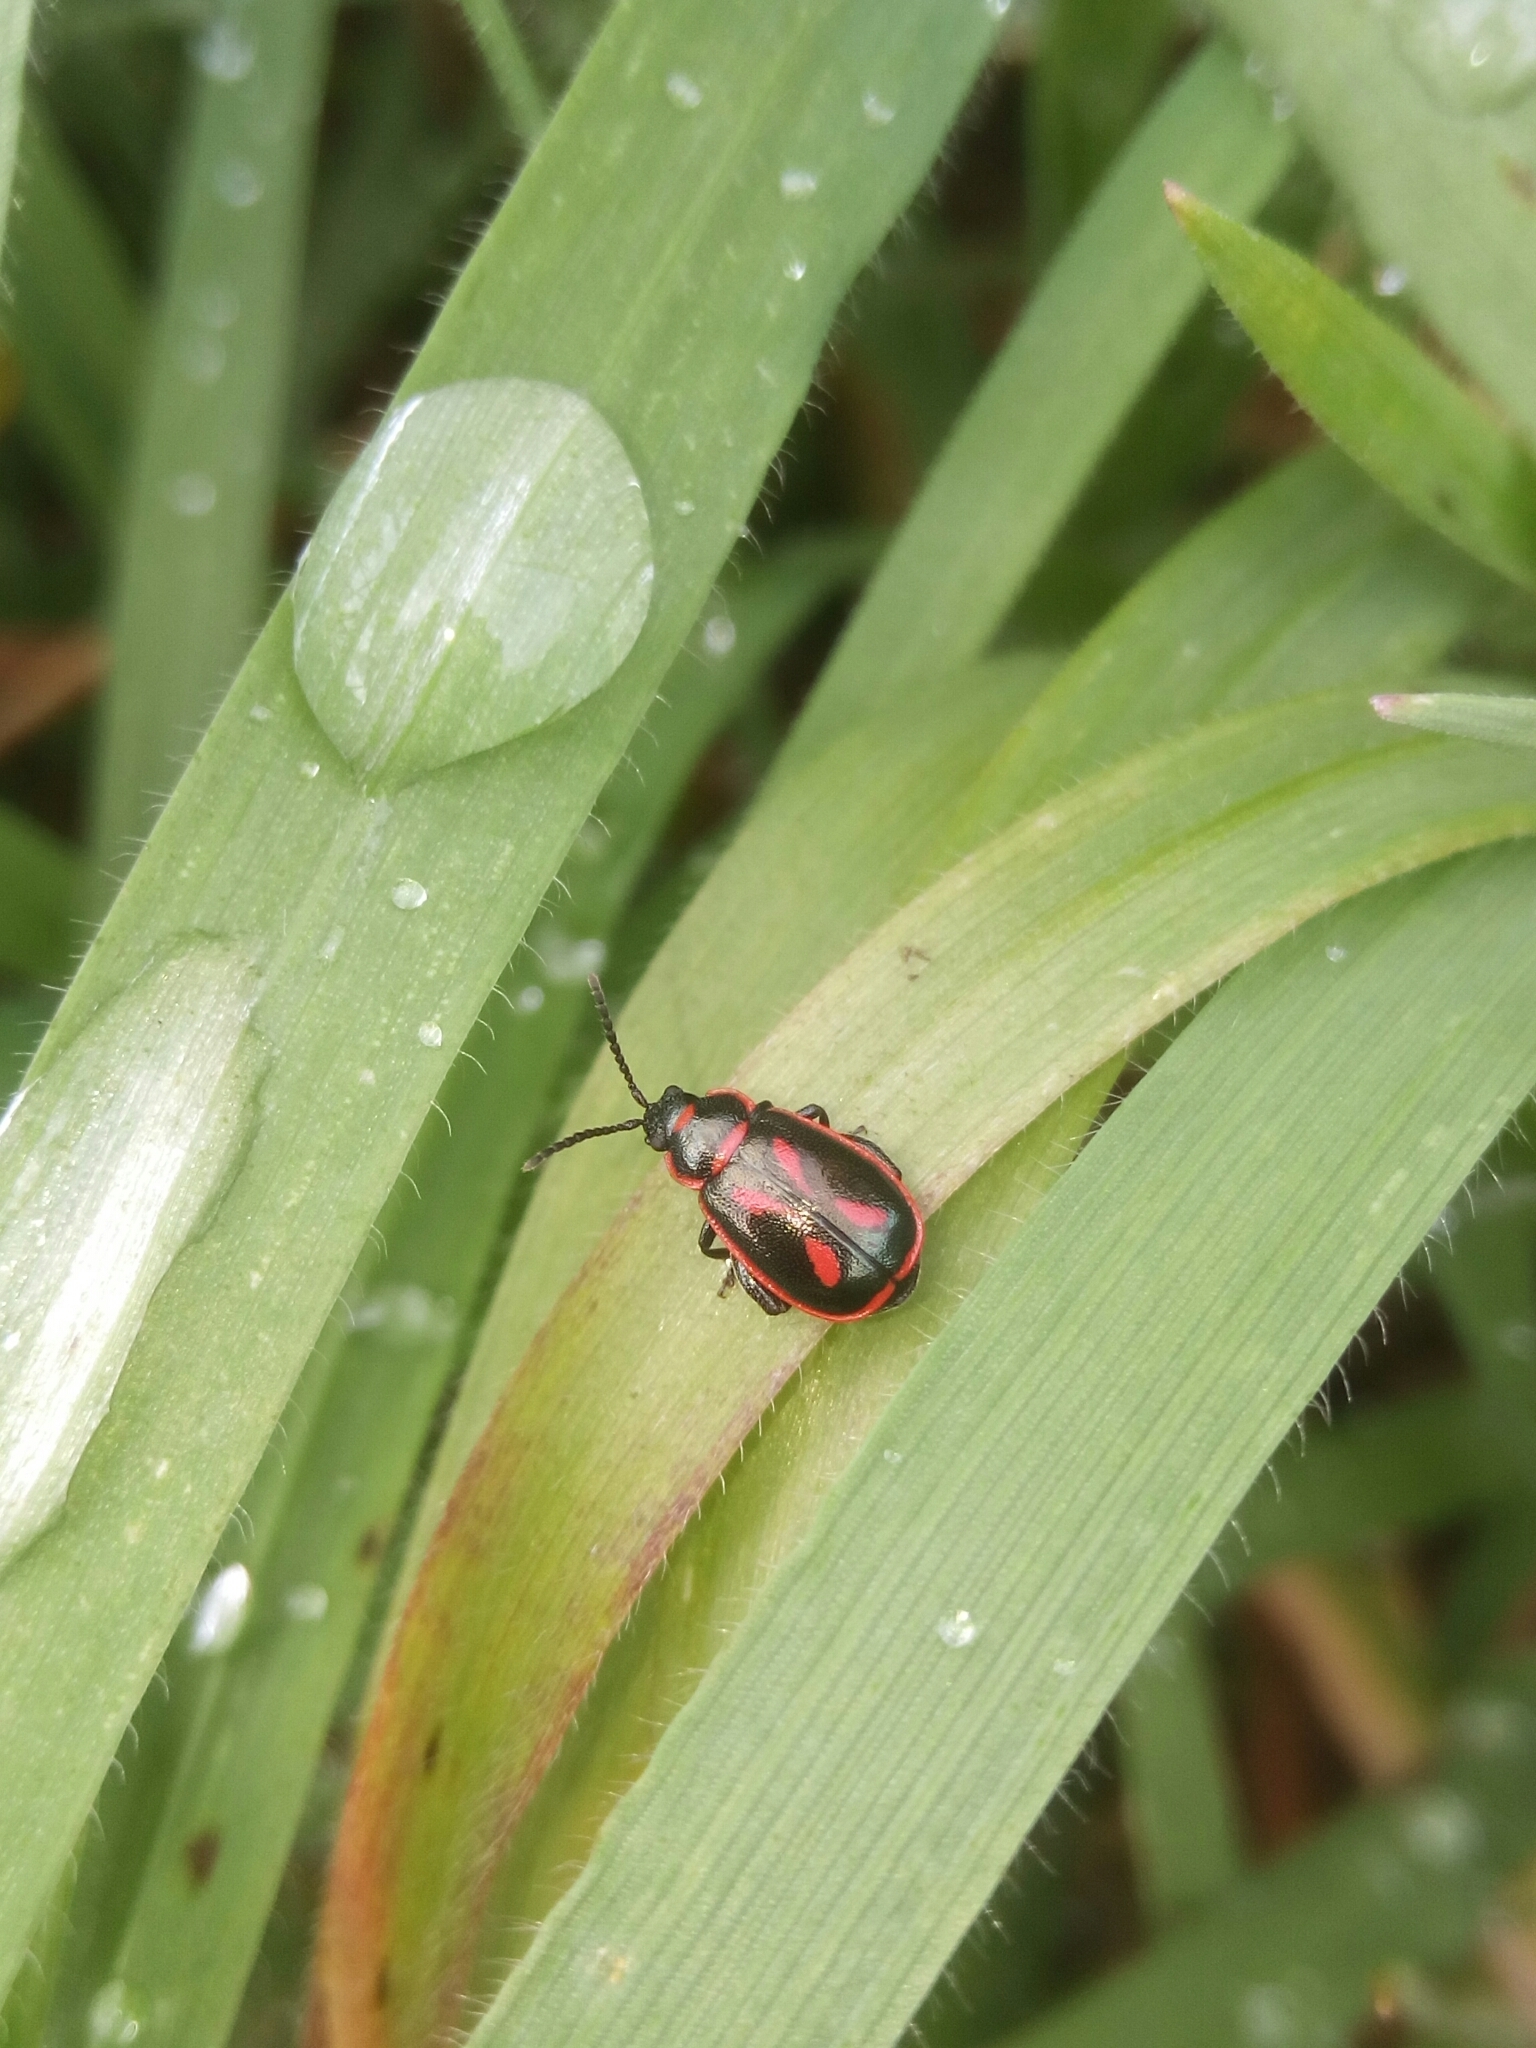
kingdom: Animalia
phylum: Arthropoda
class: Insecta
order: Coleoptera
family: Chrysomelidae
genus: Oedionychis
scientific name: Oedionychis cincta
